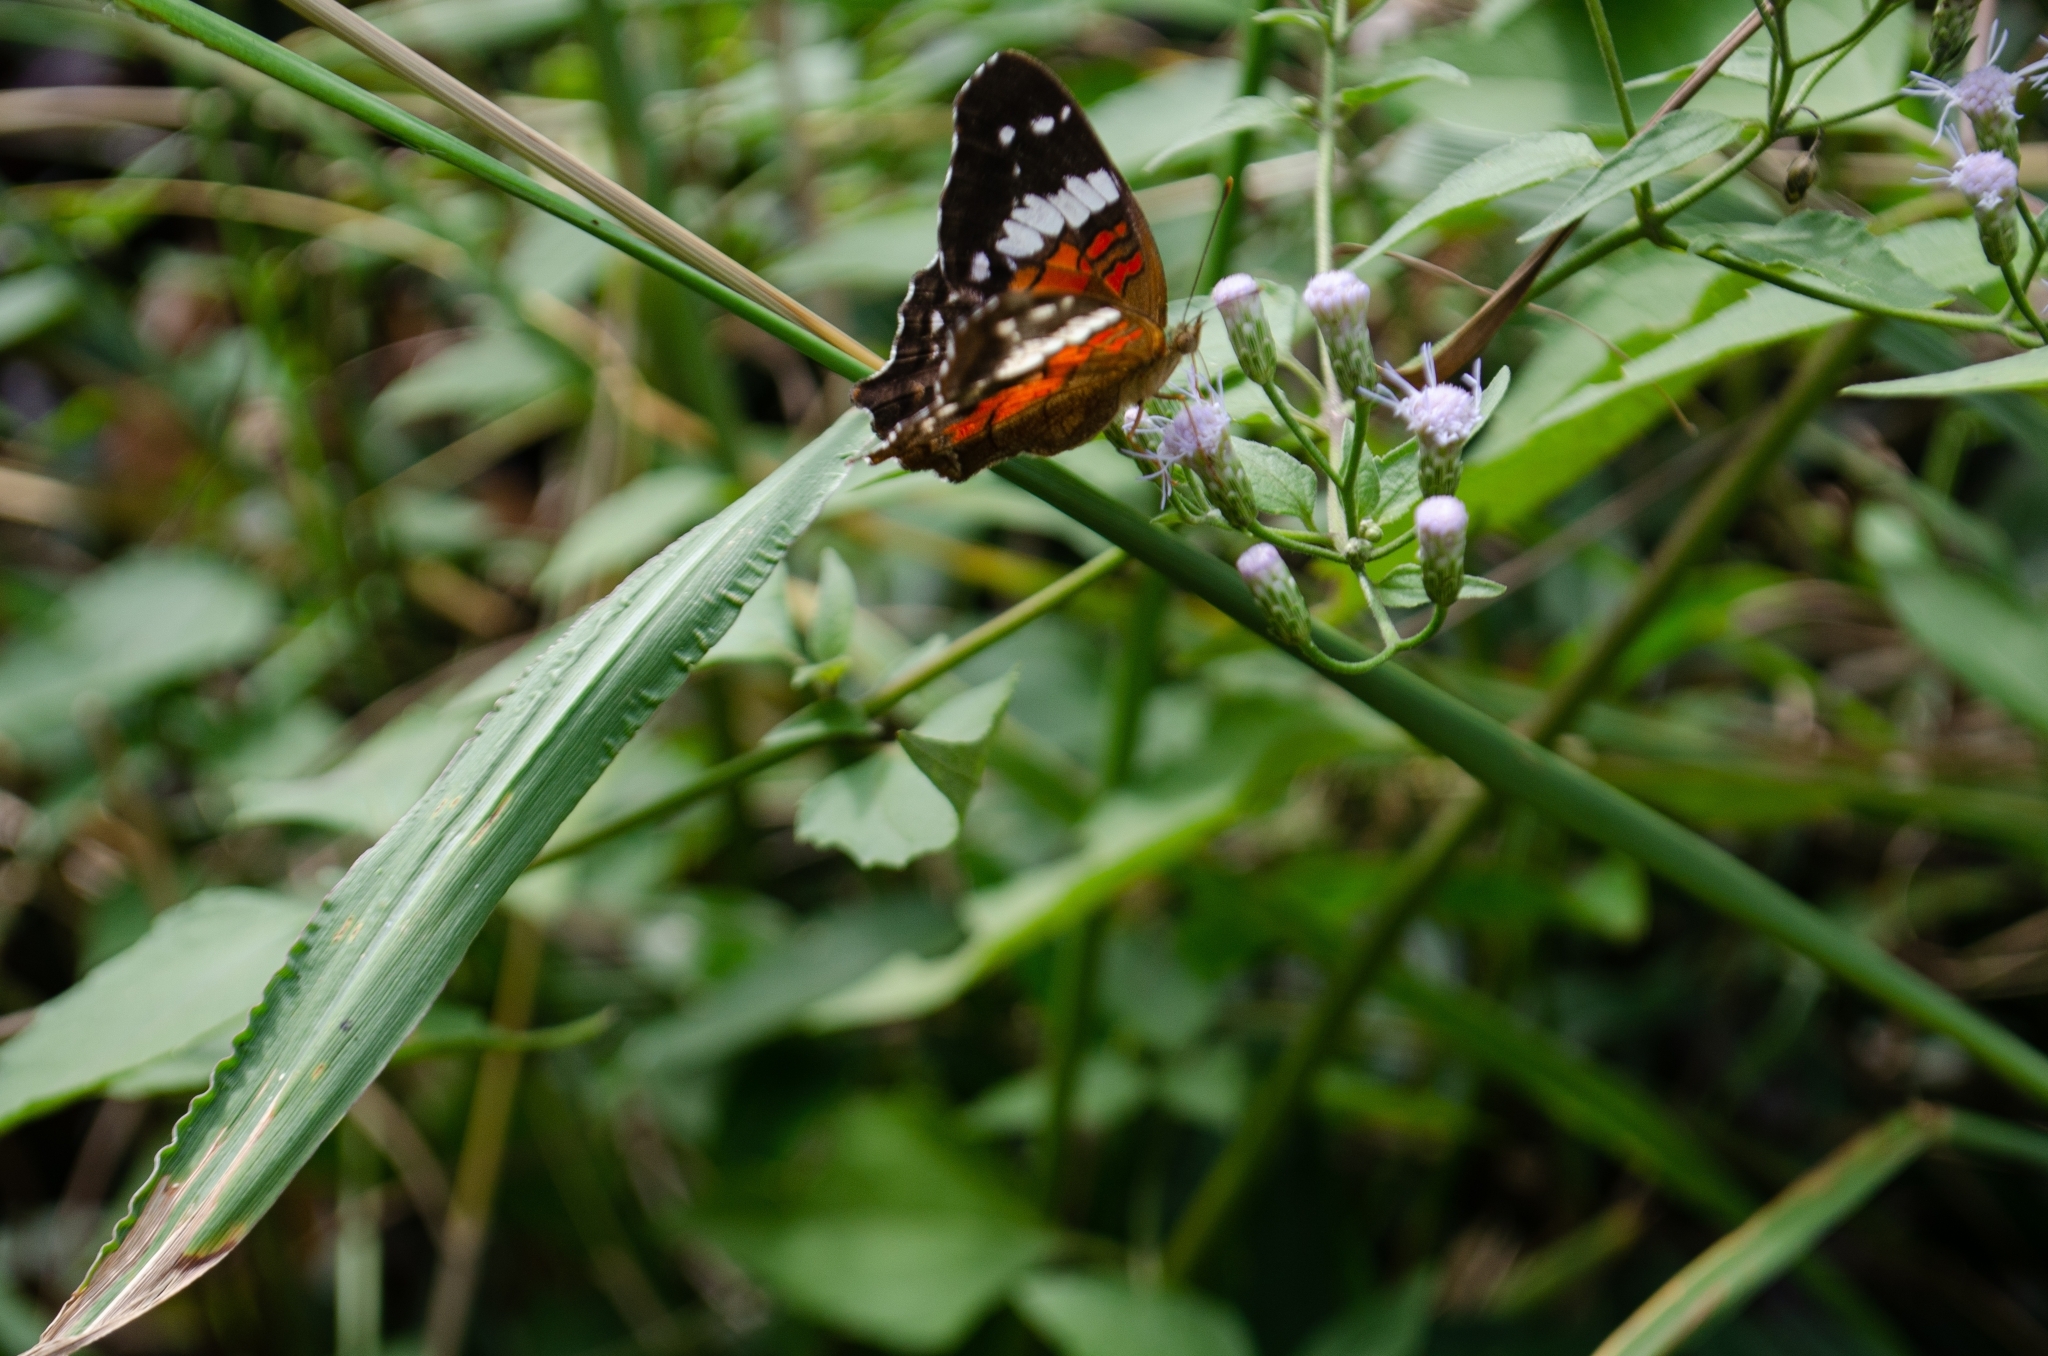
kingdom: Animalia
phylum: Arthropoda
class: Insecta
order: Lepidoptera
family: Nymphalidae
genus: Anartia
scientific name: Anartia amathea
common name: Red peacock
